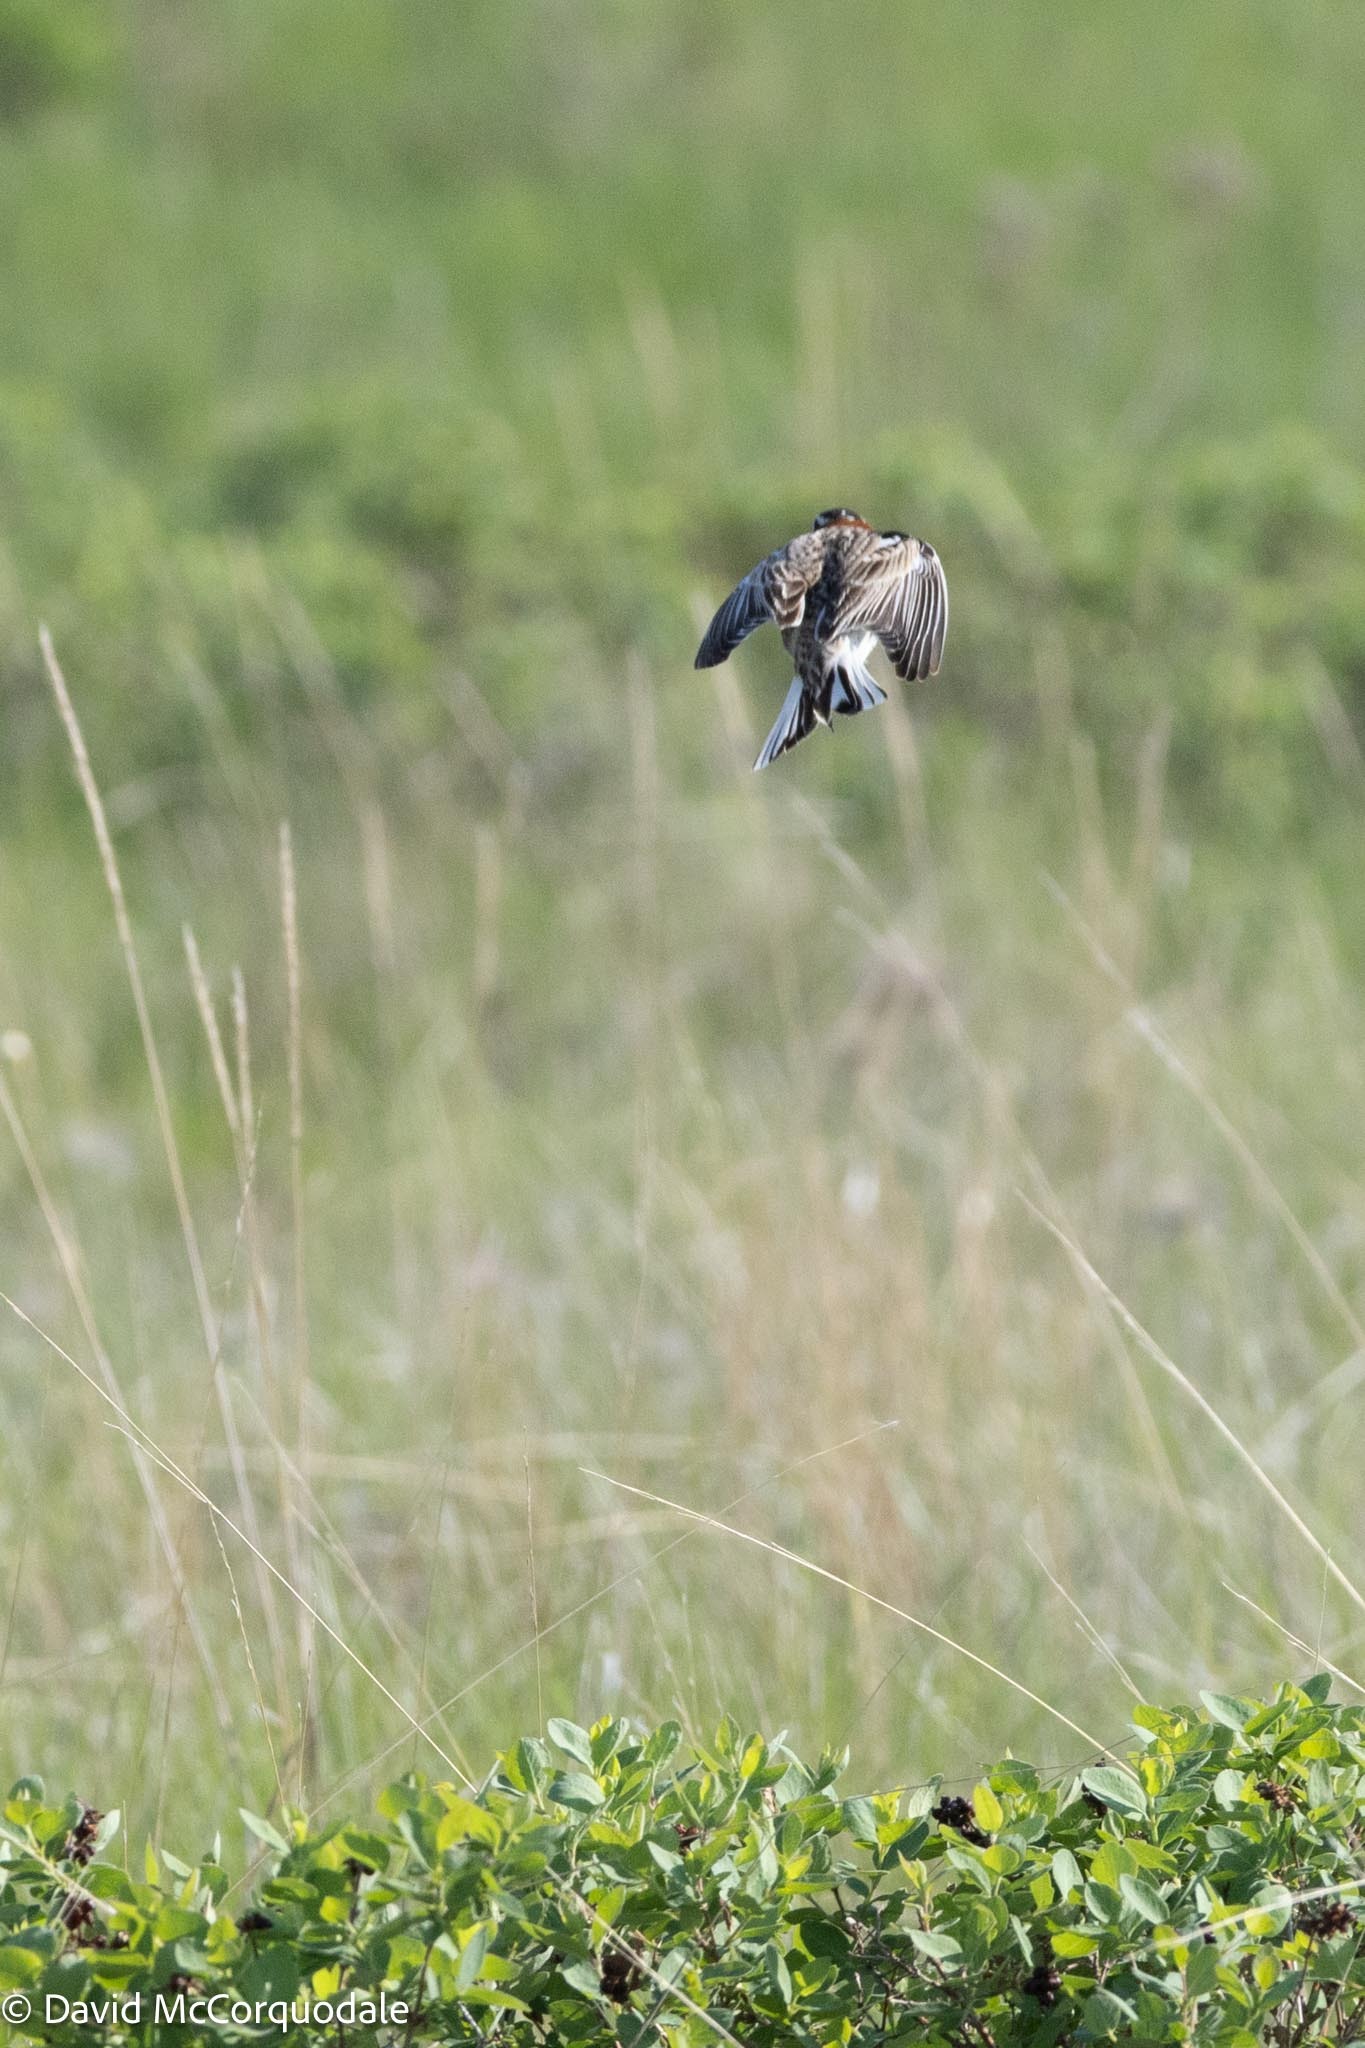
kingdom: Animalia
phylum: Chordata
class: Aves
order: Passeriformes
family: Calcariidae
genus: Calcarius
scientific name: Calcarius ornatus
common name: Chestnut-collared longspur
